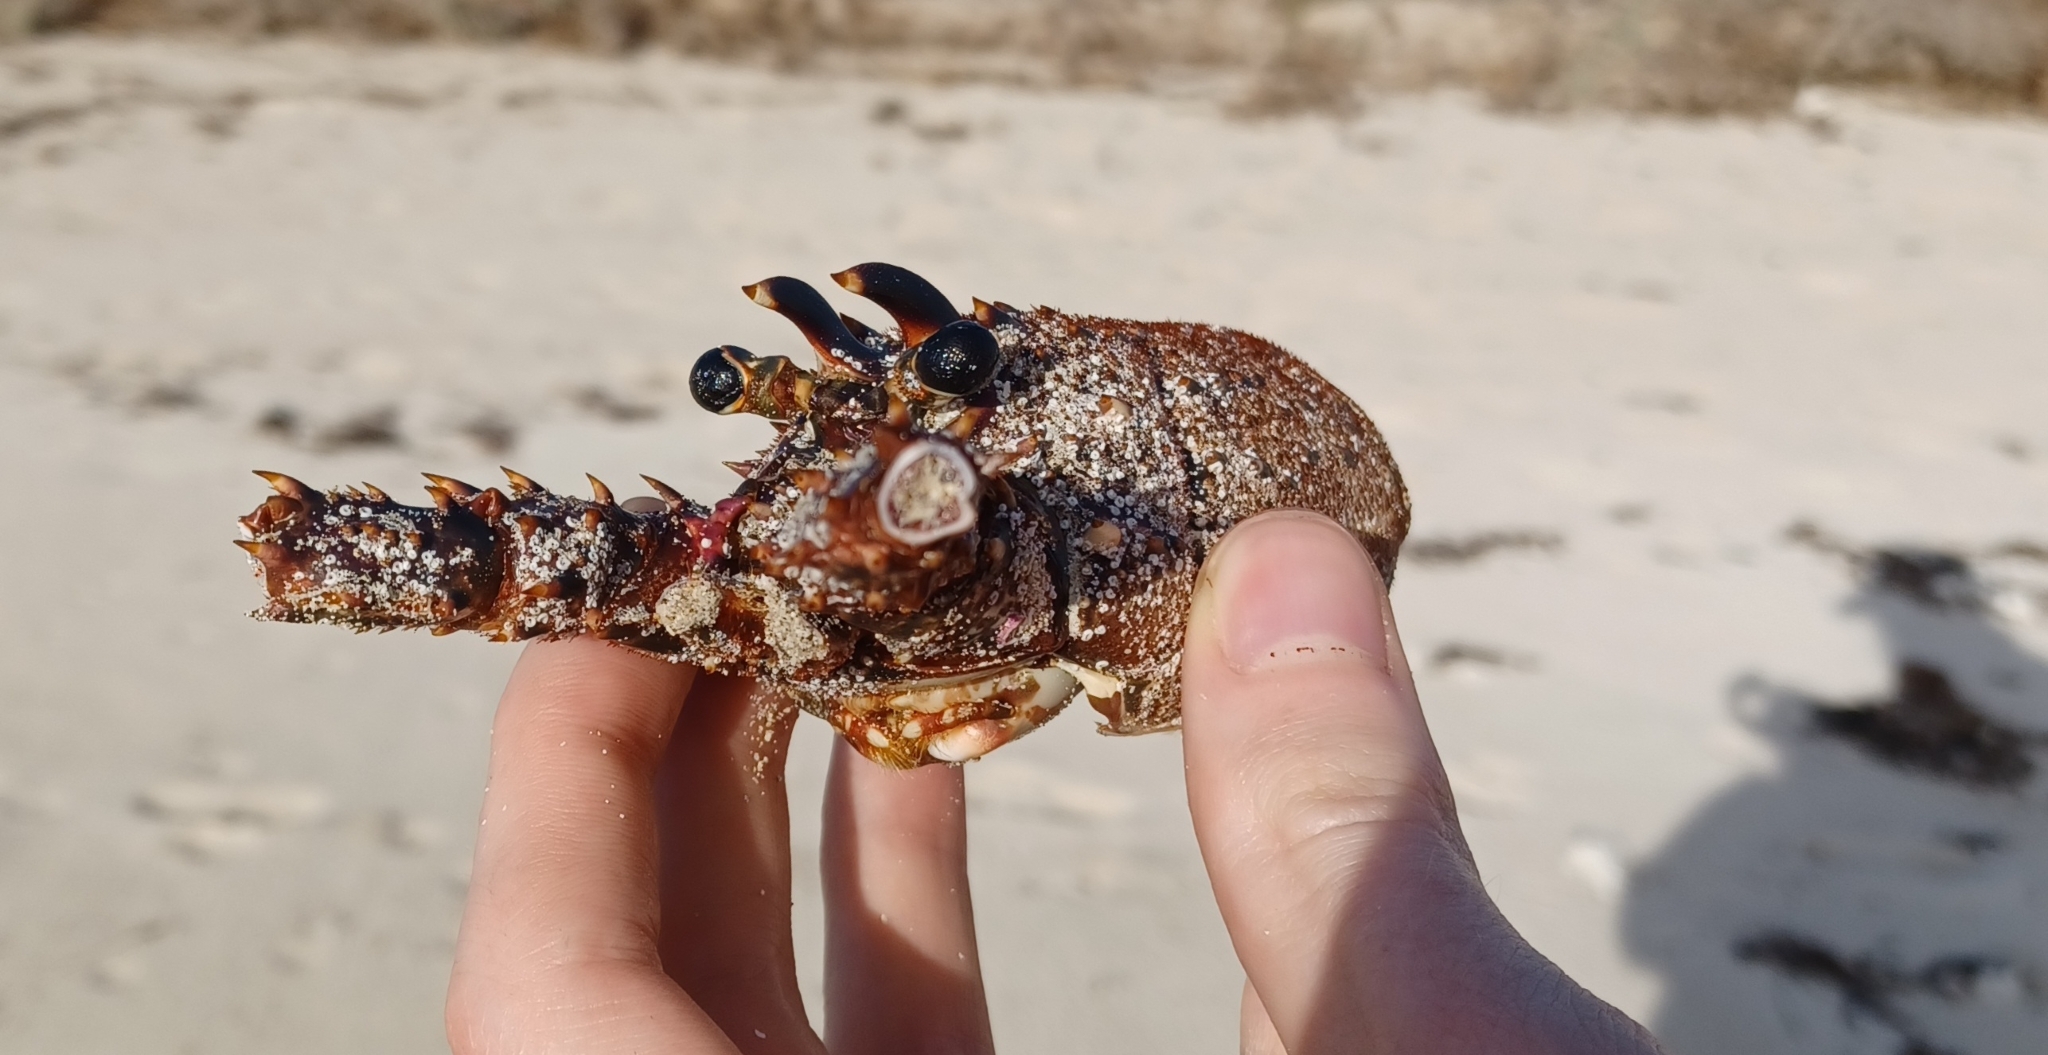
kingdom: Animalia
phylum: Arthropoda
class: Malacostraca
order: Decapoda
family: Palinuridae
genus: Panulirus
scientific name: Panulirus cygnus
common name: Australian spiny lobster
